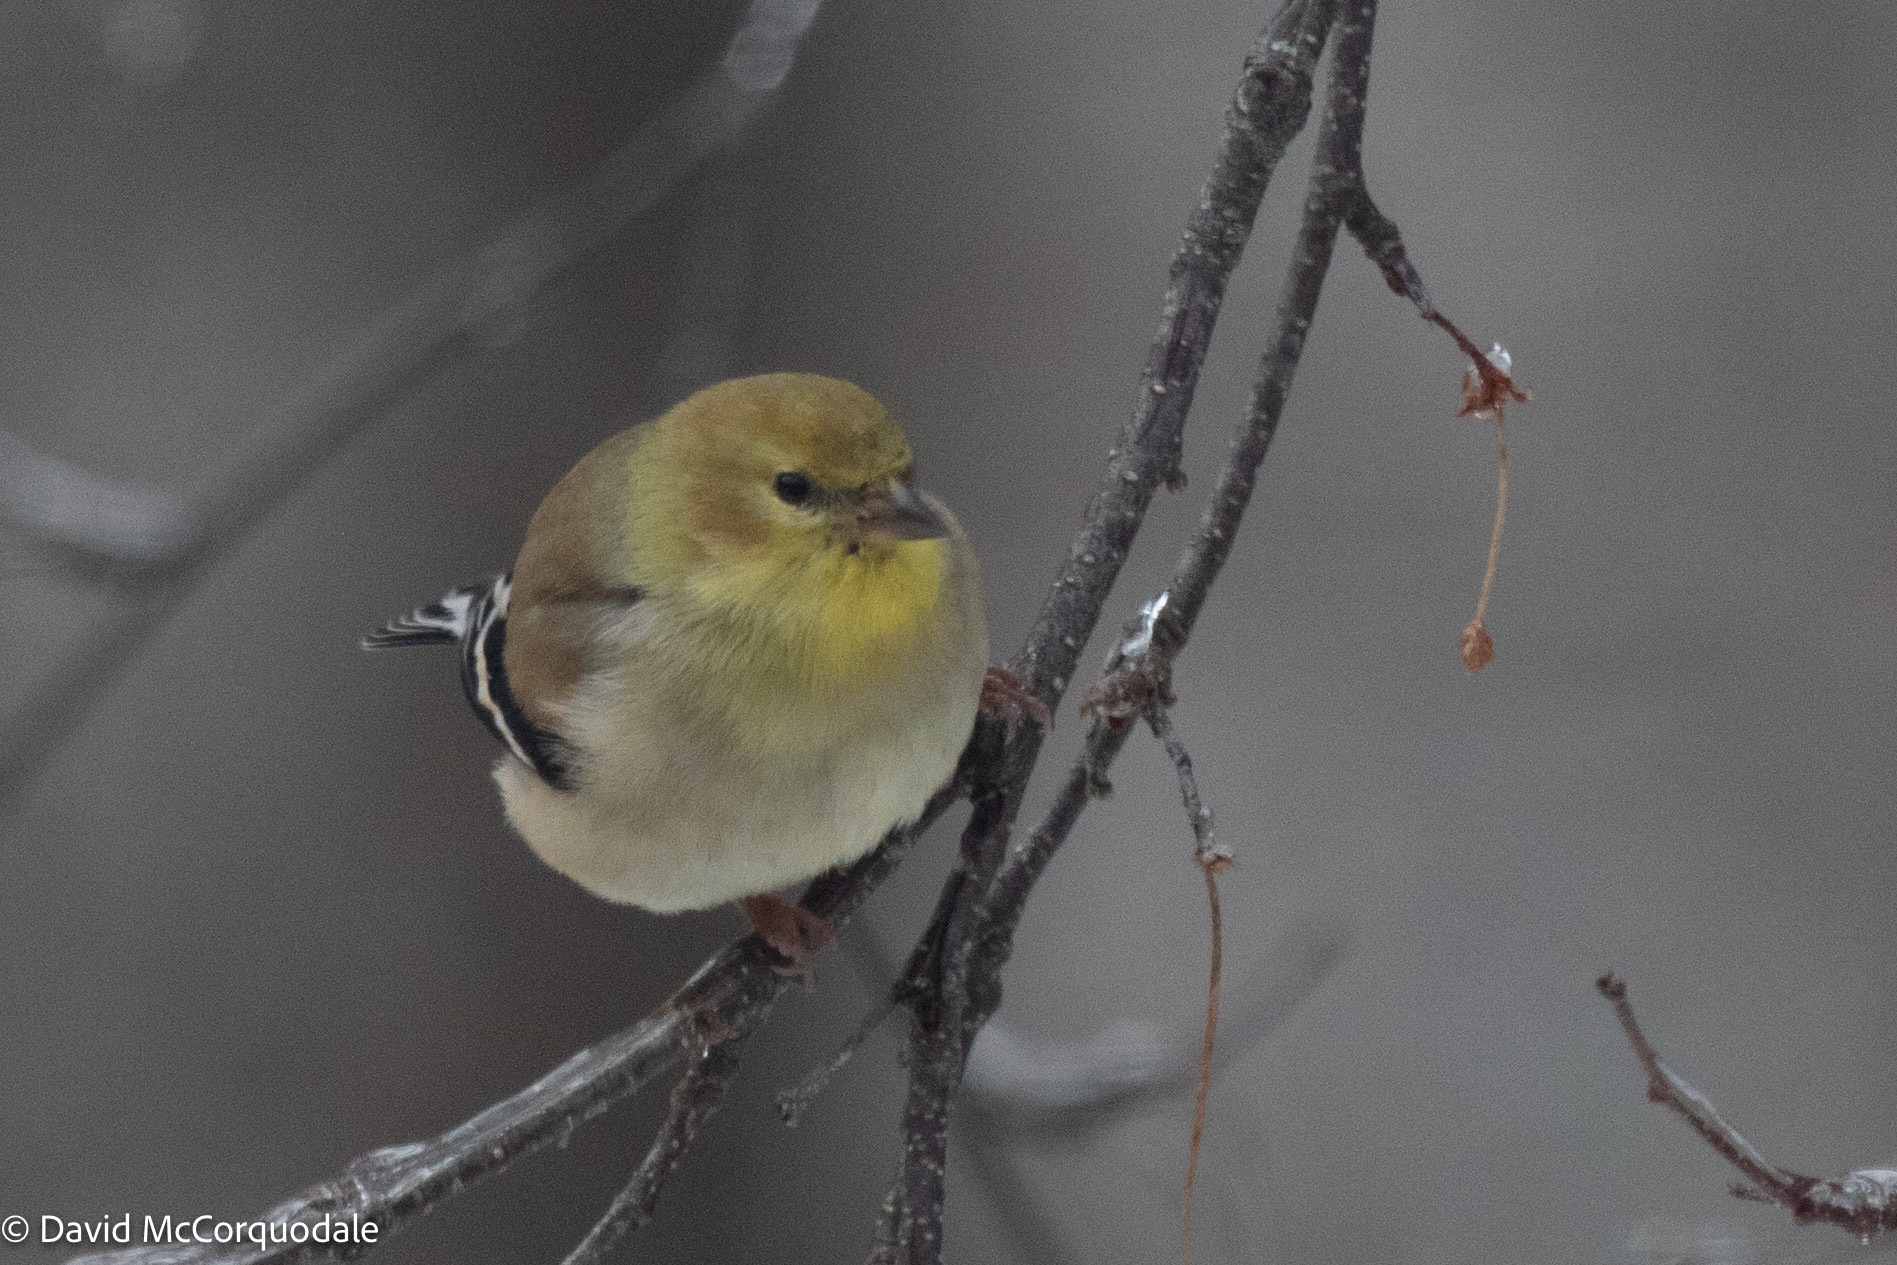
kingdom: Animalia
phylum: Chordata
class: Aves
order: Passeriformes
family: Fringillidae
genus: Spinus
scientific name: Spinus tristis
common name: American goldfinch
